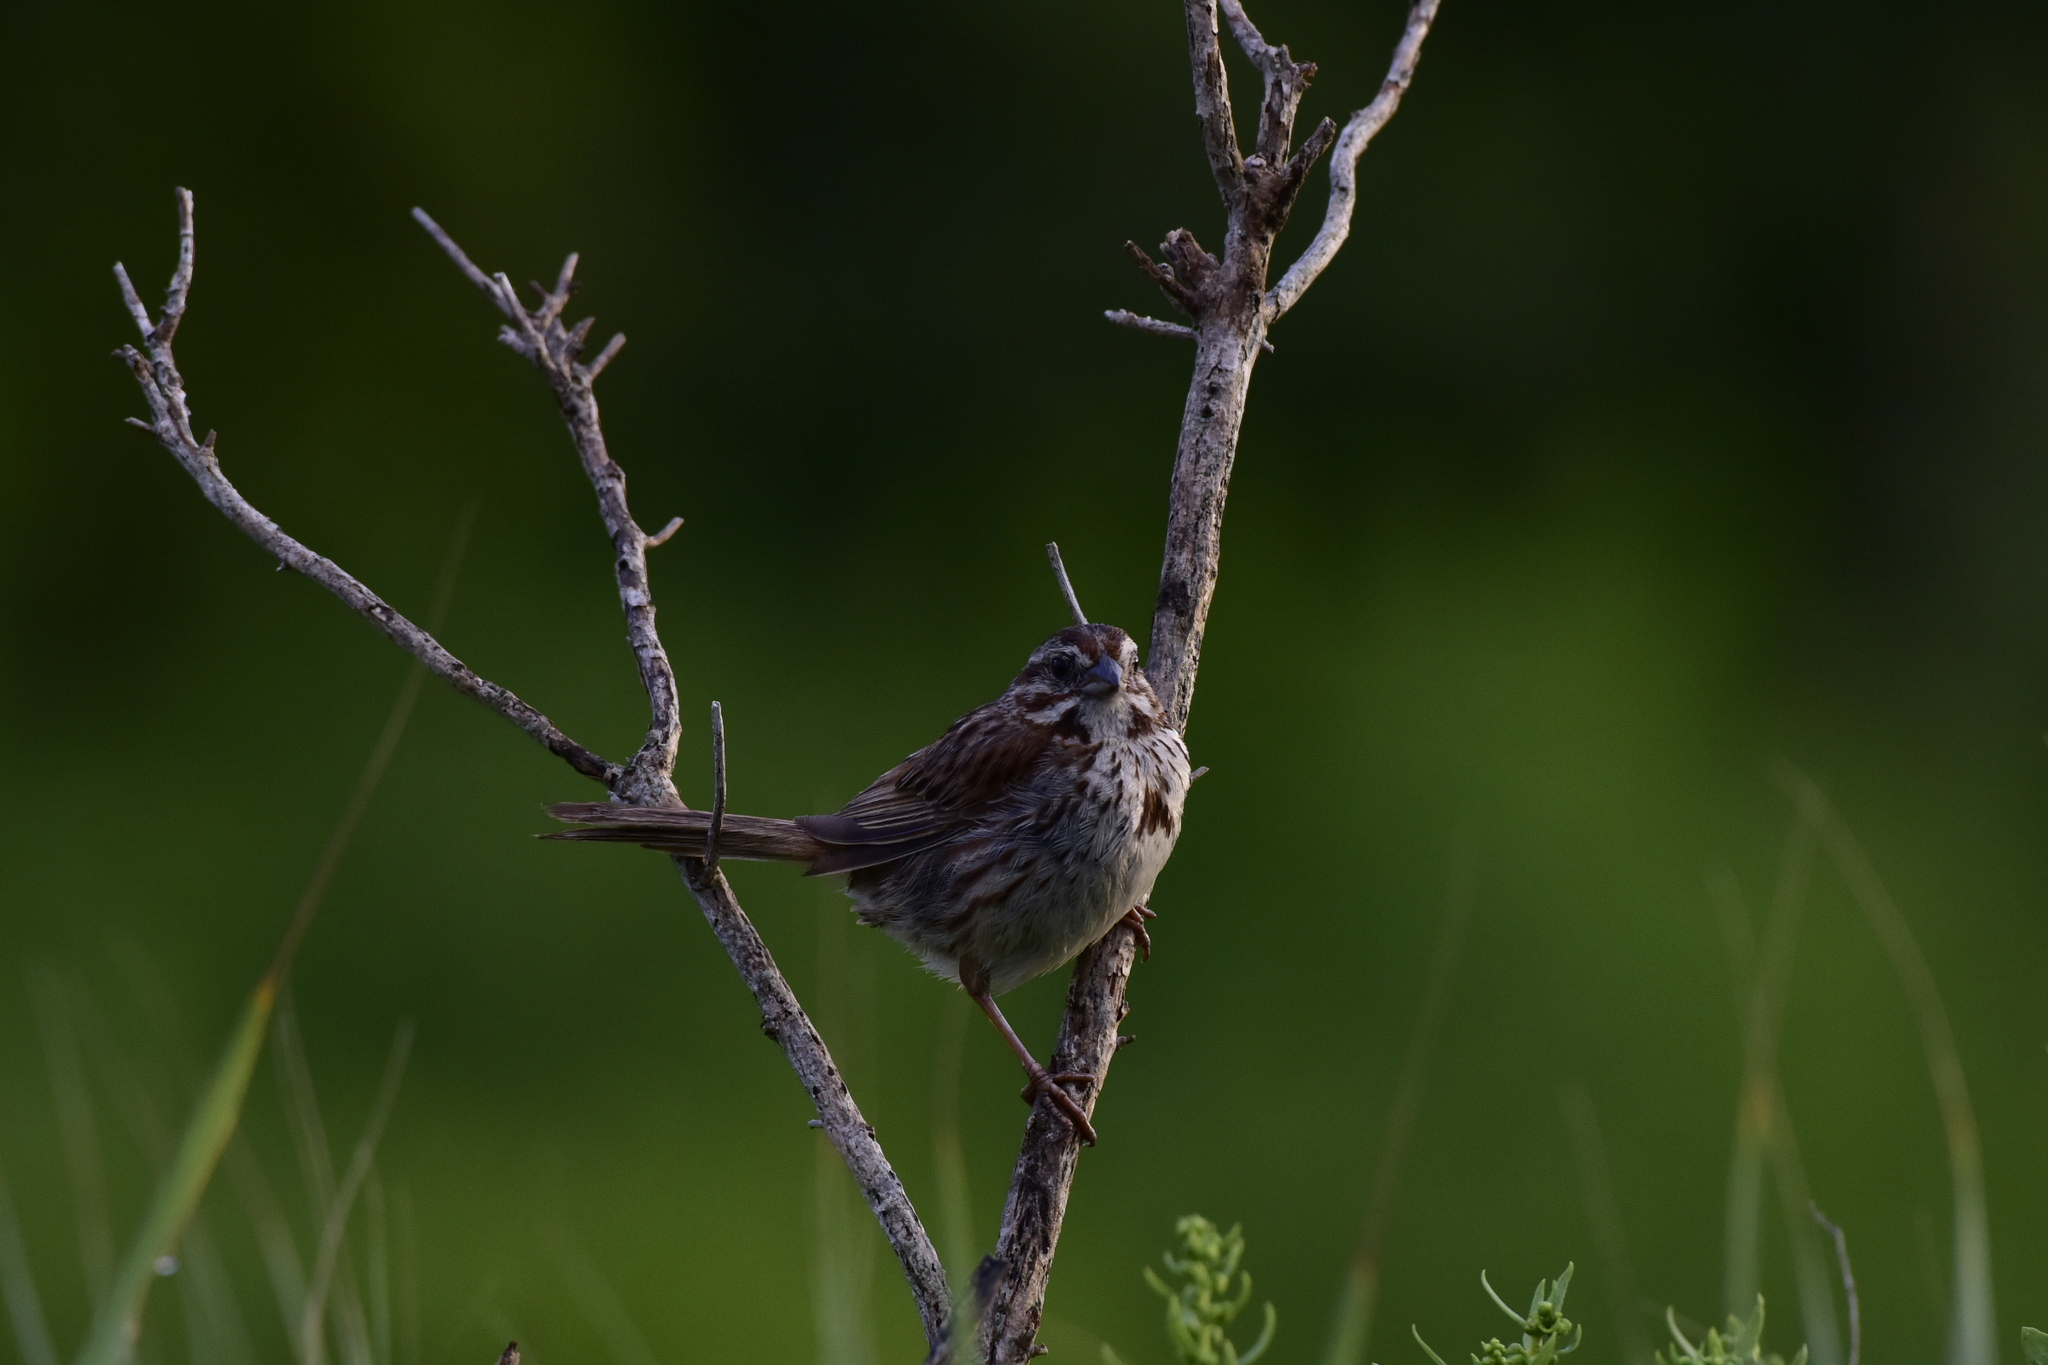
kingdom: Animalia
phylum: Chordata
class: Aves
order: Passeriformes
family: Passerellidae
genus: Melospiza
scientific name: Melospiza melodia
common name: Song sparrow
